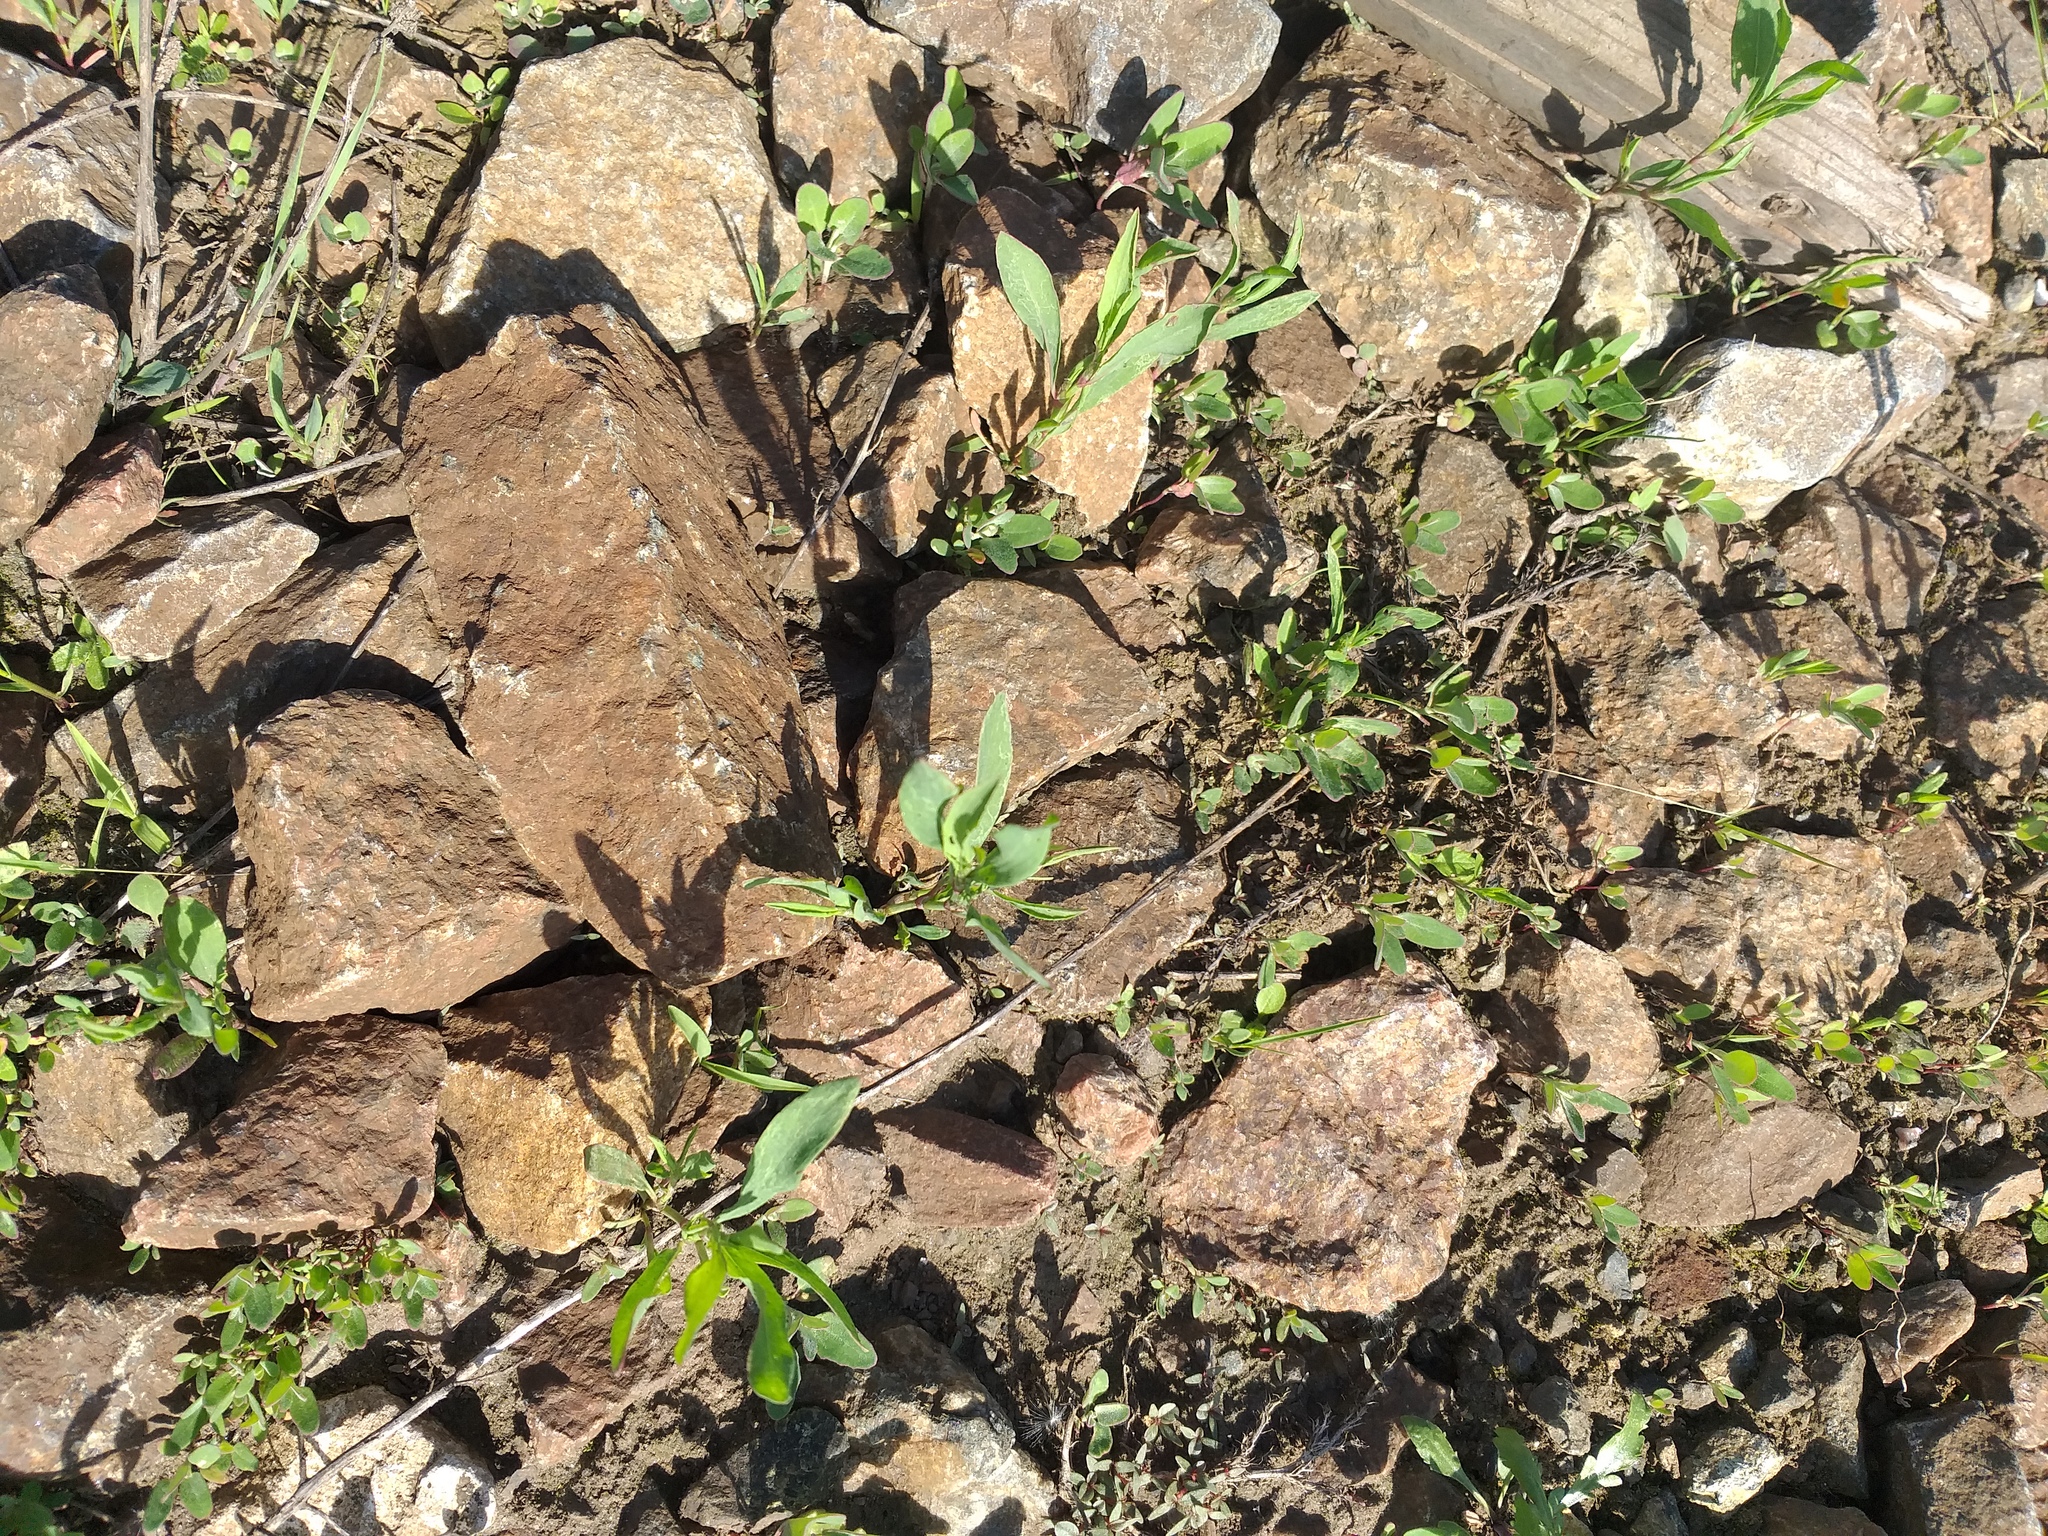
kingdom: Plantae
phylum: Tracheophyta
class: Magnoliopsida
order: Caryophyllales
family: Polygonaceae
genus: Polygonum
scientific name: Polygonum
